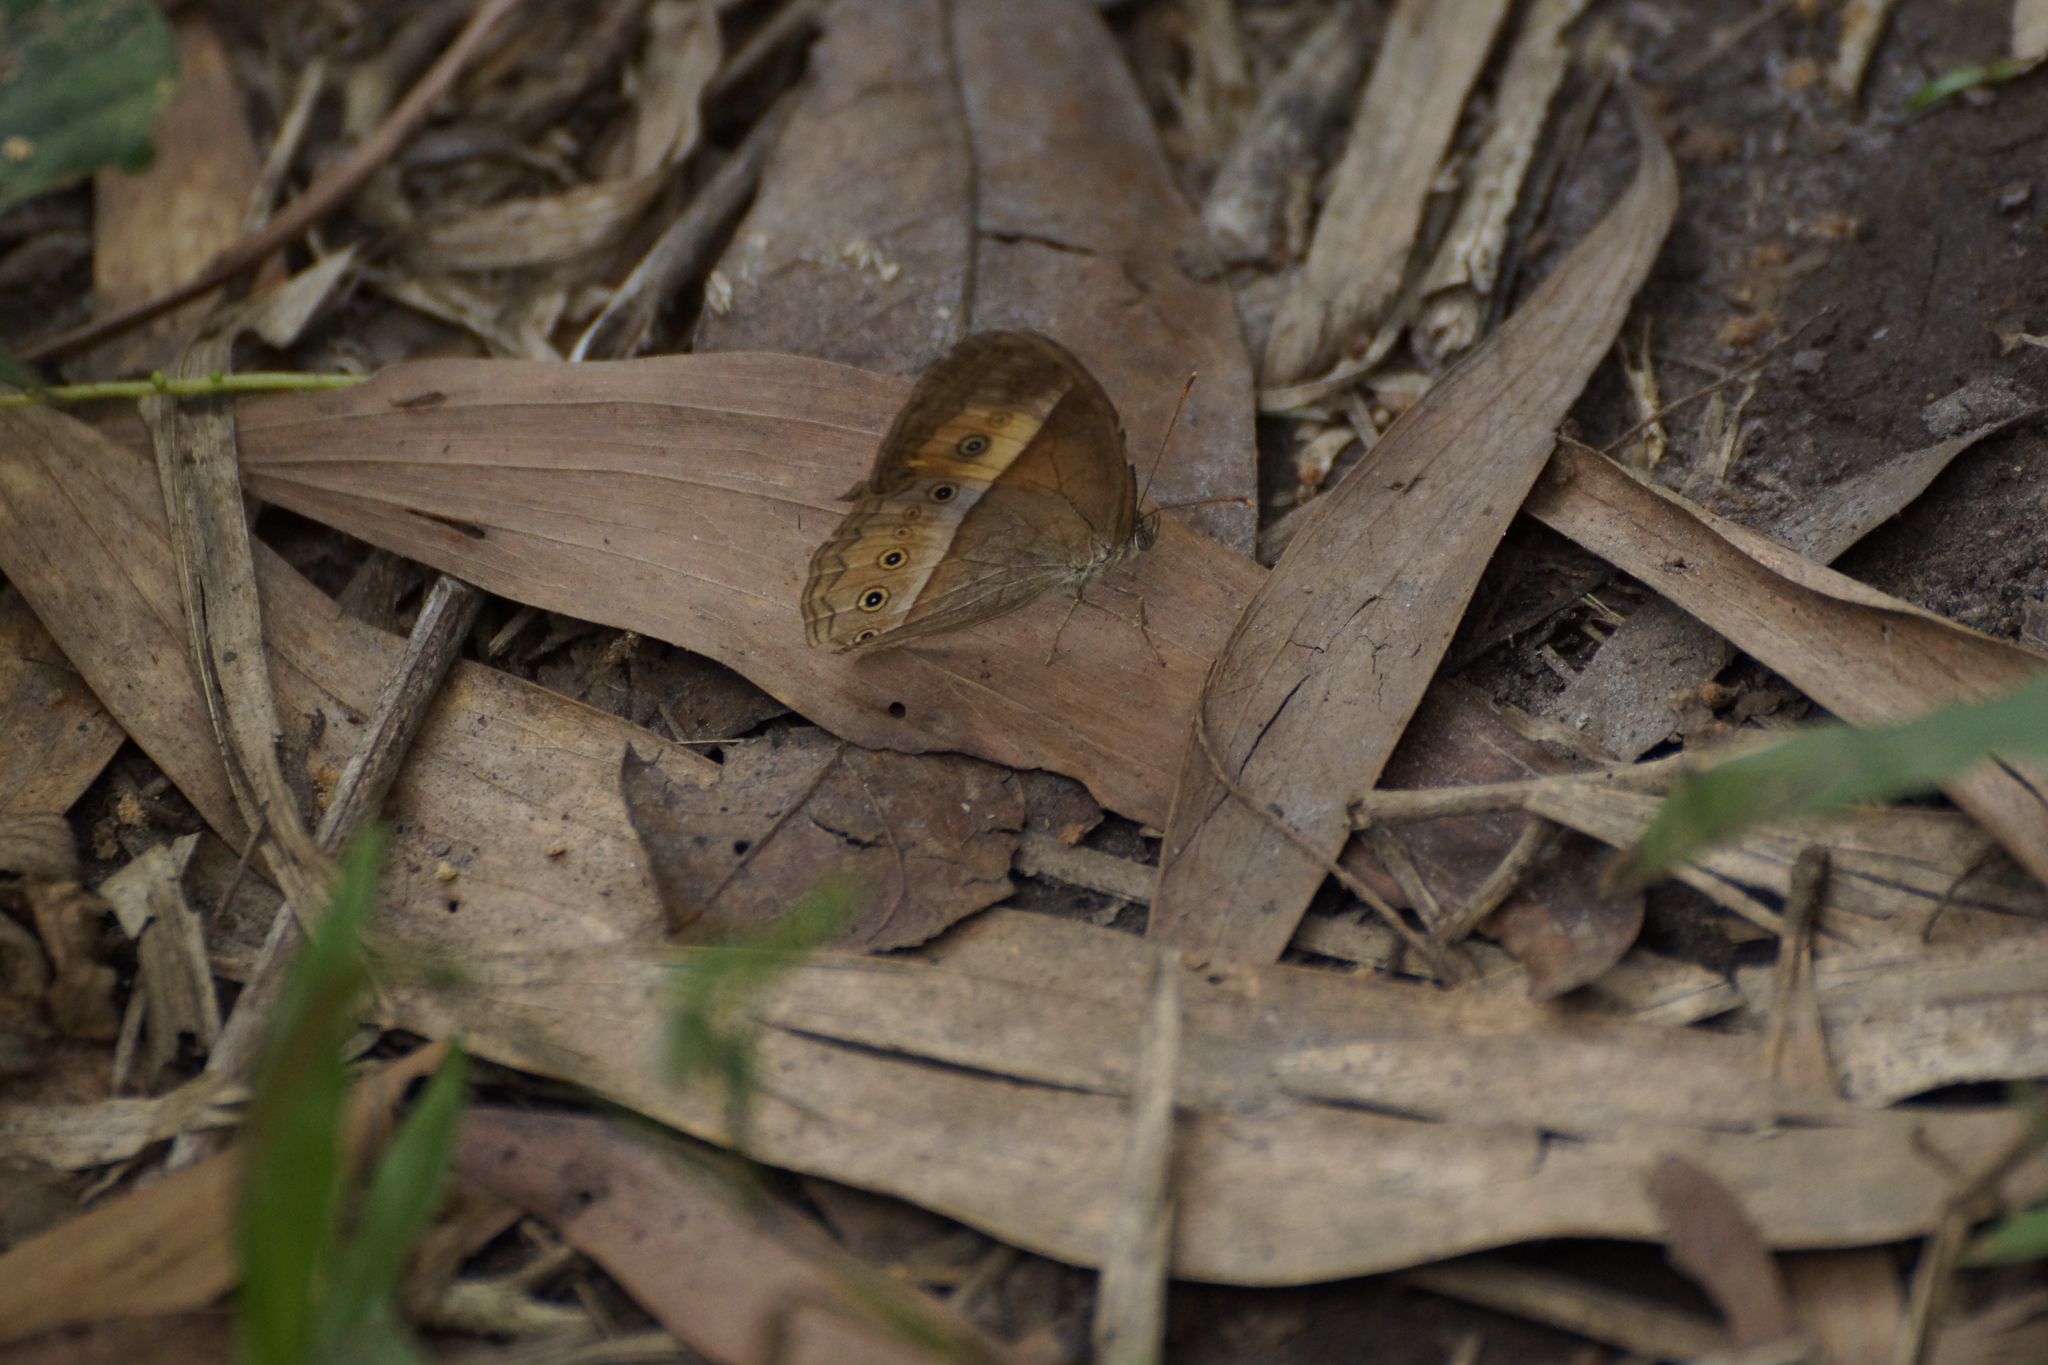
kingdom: Animalia
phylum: Arthropoda
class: Insecta
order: Lepidoptera
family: Nymphalidae
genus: Mycalesis
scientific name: Mycalesis terminus
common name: Orange bushbrown
